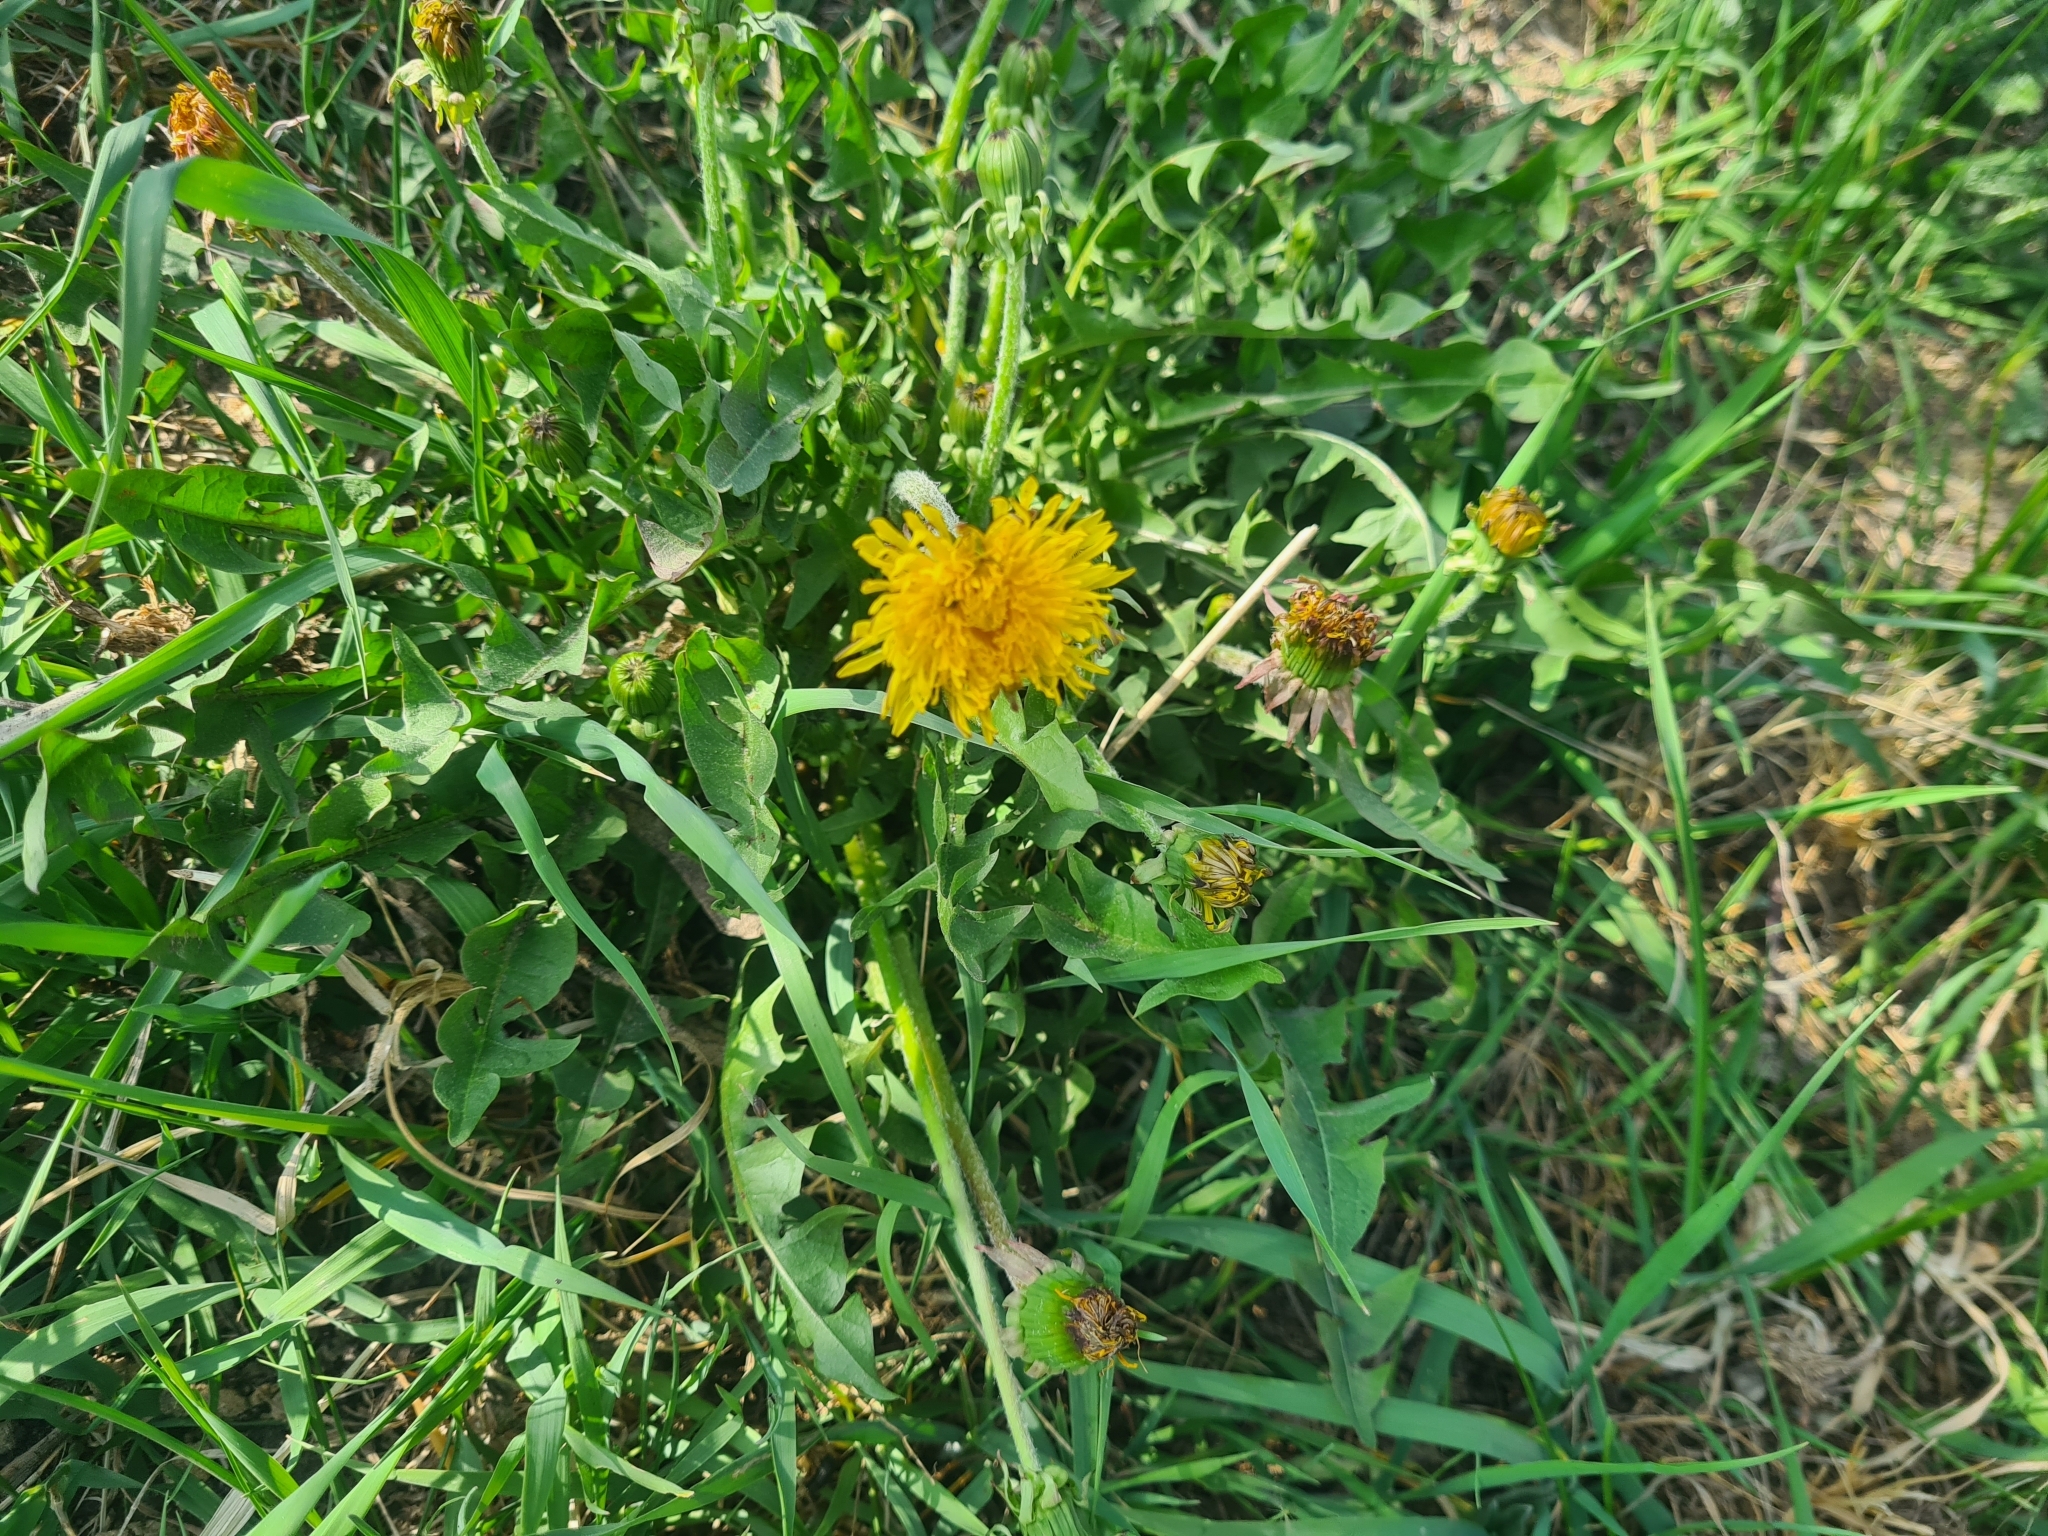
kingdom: Plantae
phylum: Tracheophyta
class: Magnoliopsida
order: Asterales
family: Asteraceae
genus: Taraxacum
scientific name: Taraxacum officinale
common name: Common dandelion
